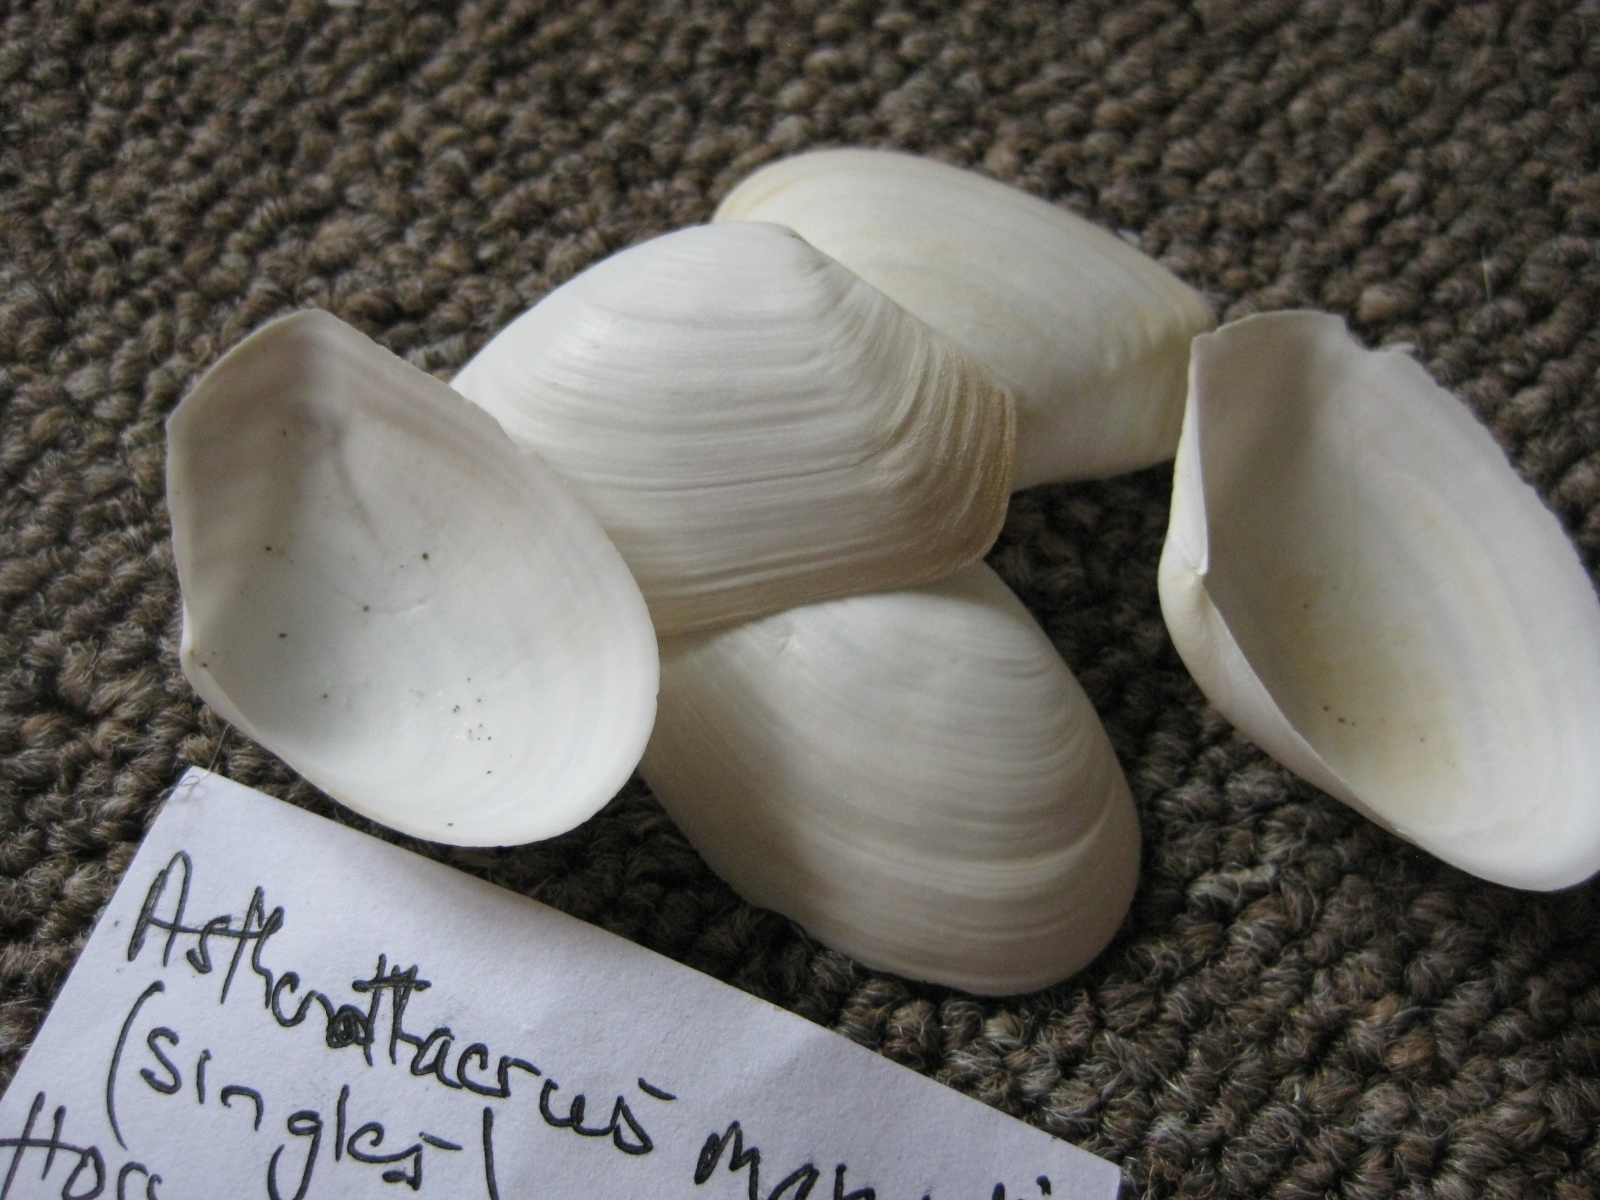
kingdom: Animalia
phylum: Mollusca
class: Bivalvia
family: Thraciidae
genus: Asthenothaerus
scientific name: Asthenothaerus maxwelli
